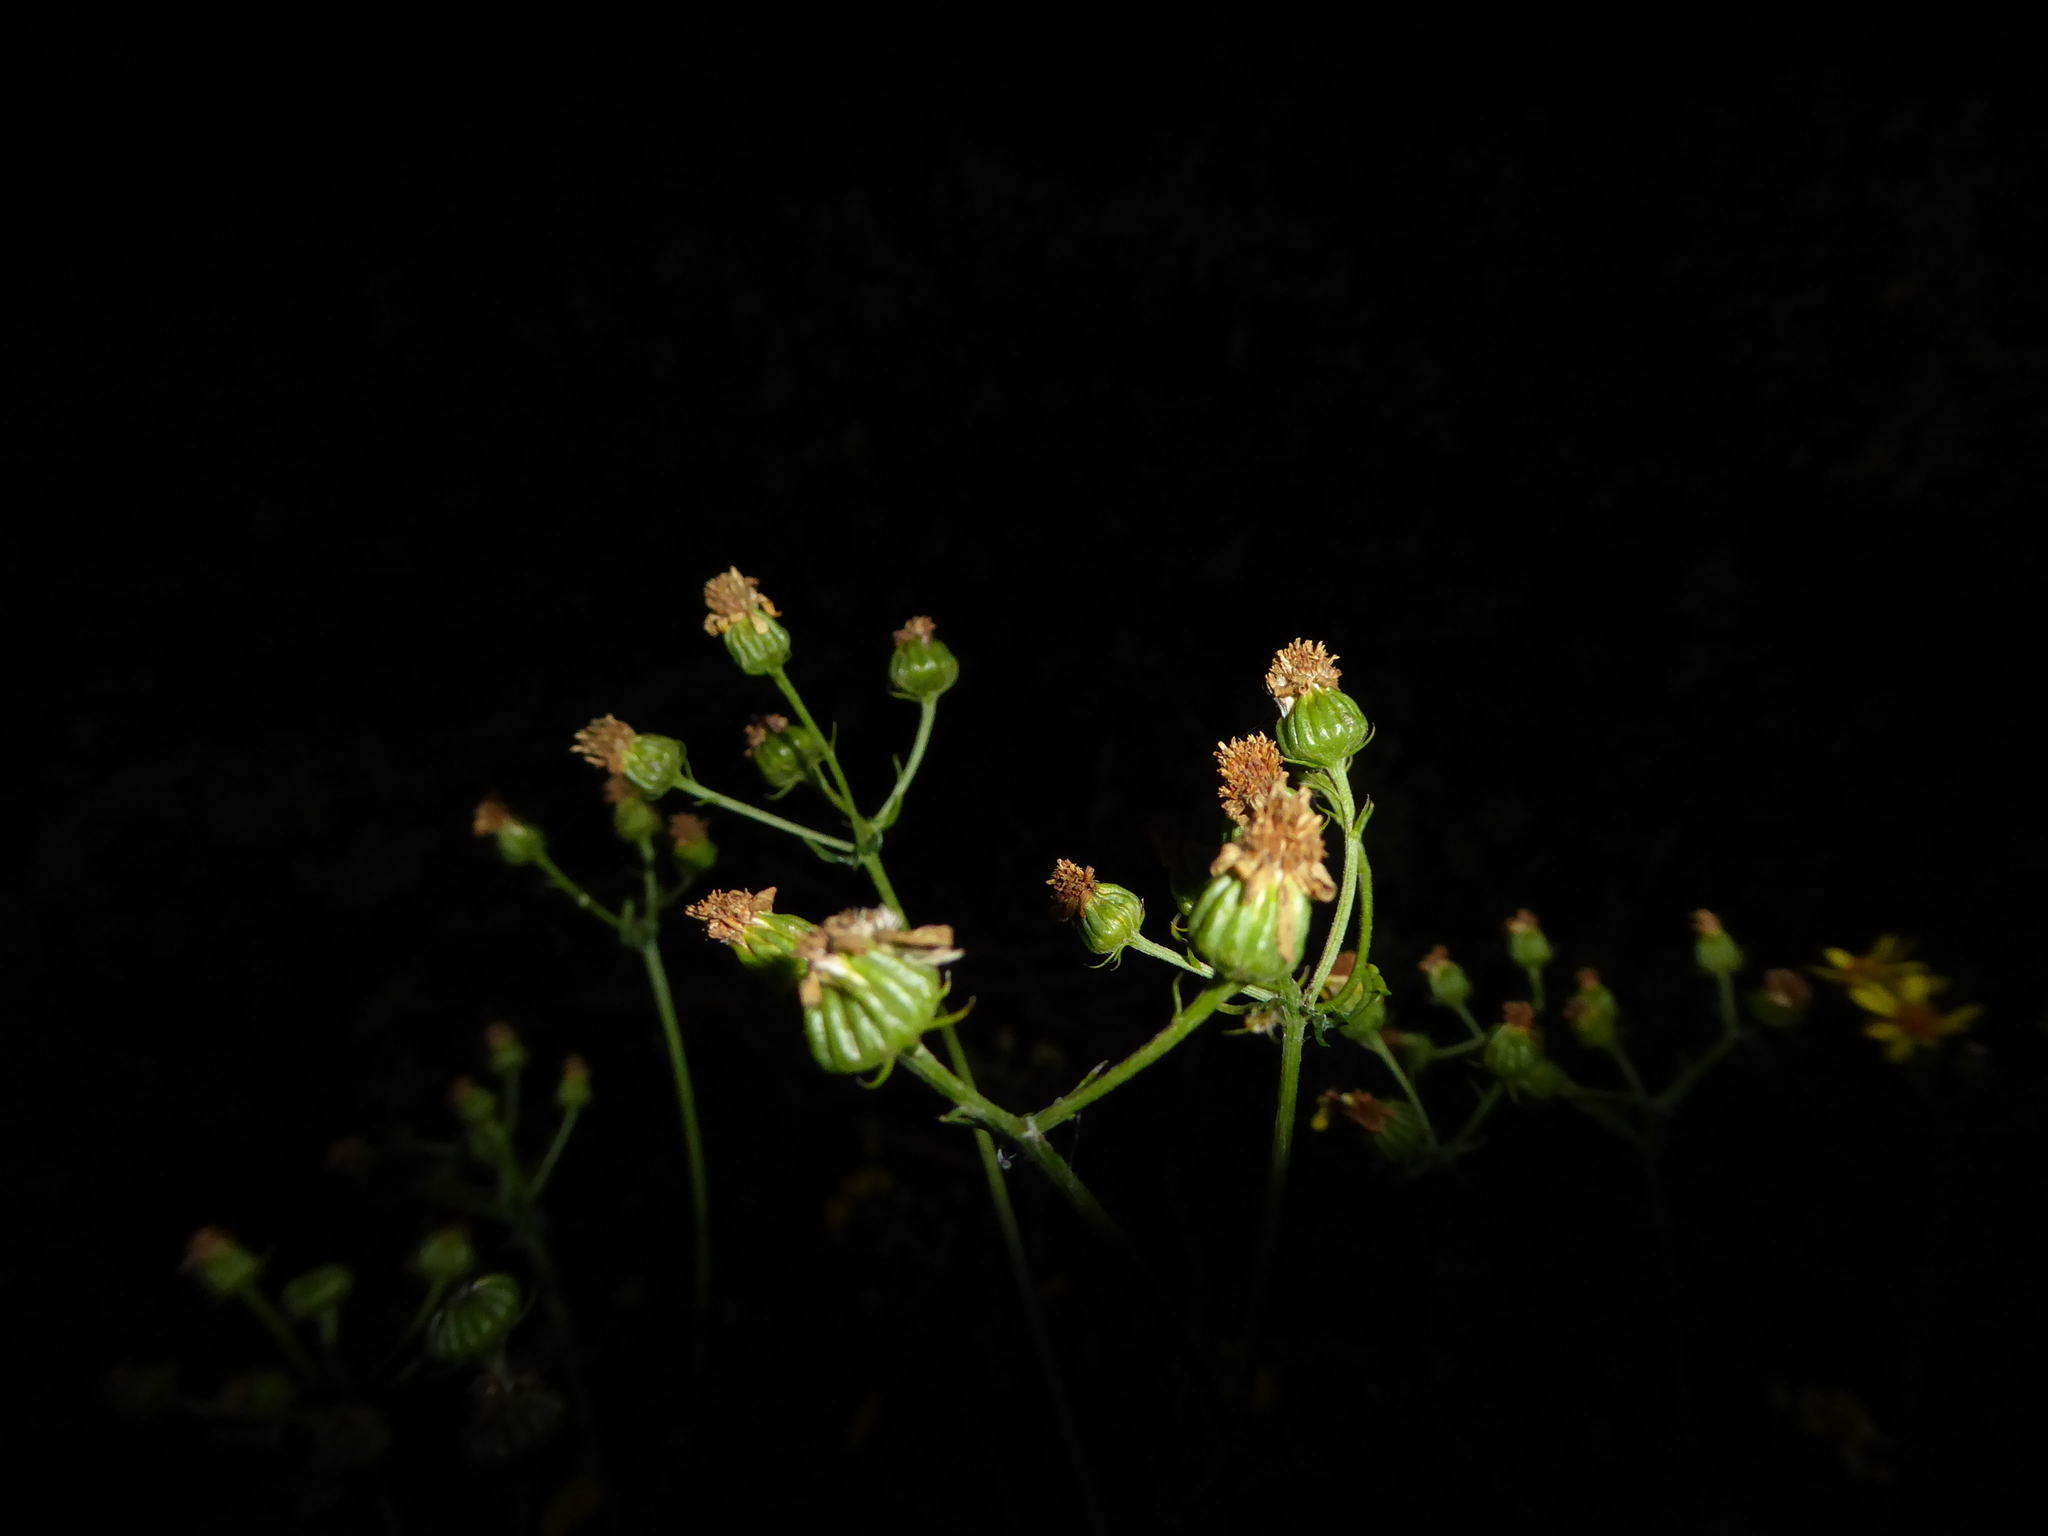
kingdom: Plantae
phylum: Tracheophyta
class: Magnoliopsida
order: Asterales
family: Asteraceae
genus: Jacobaea
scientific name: Jacobaea erucifolia
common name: Hoary ragwort
